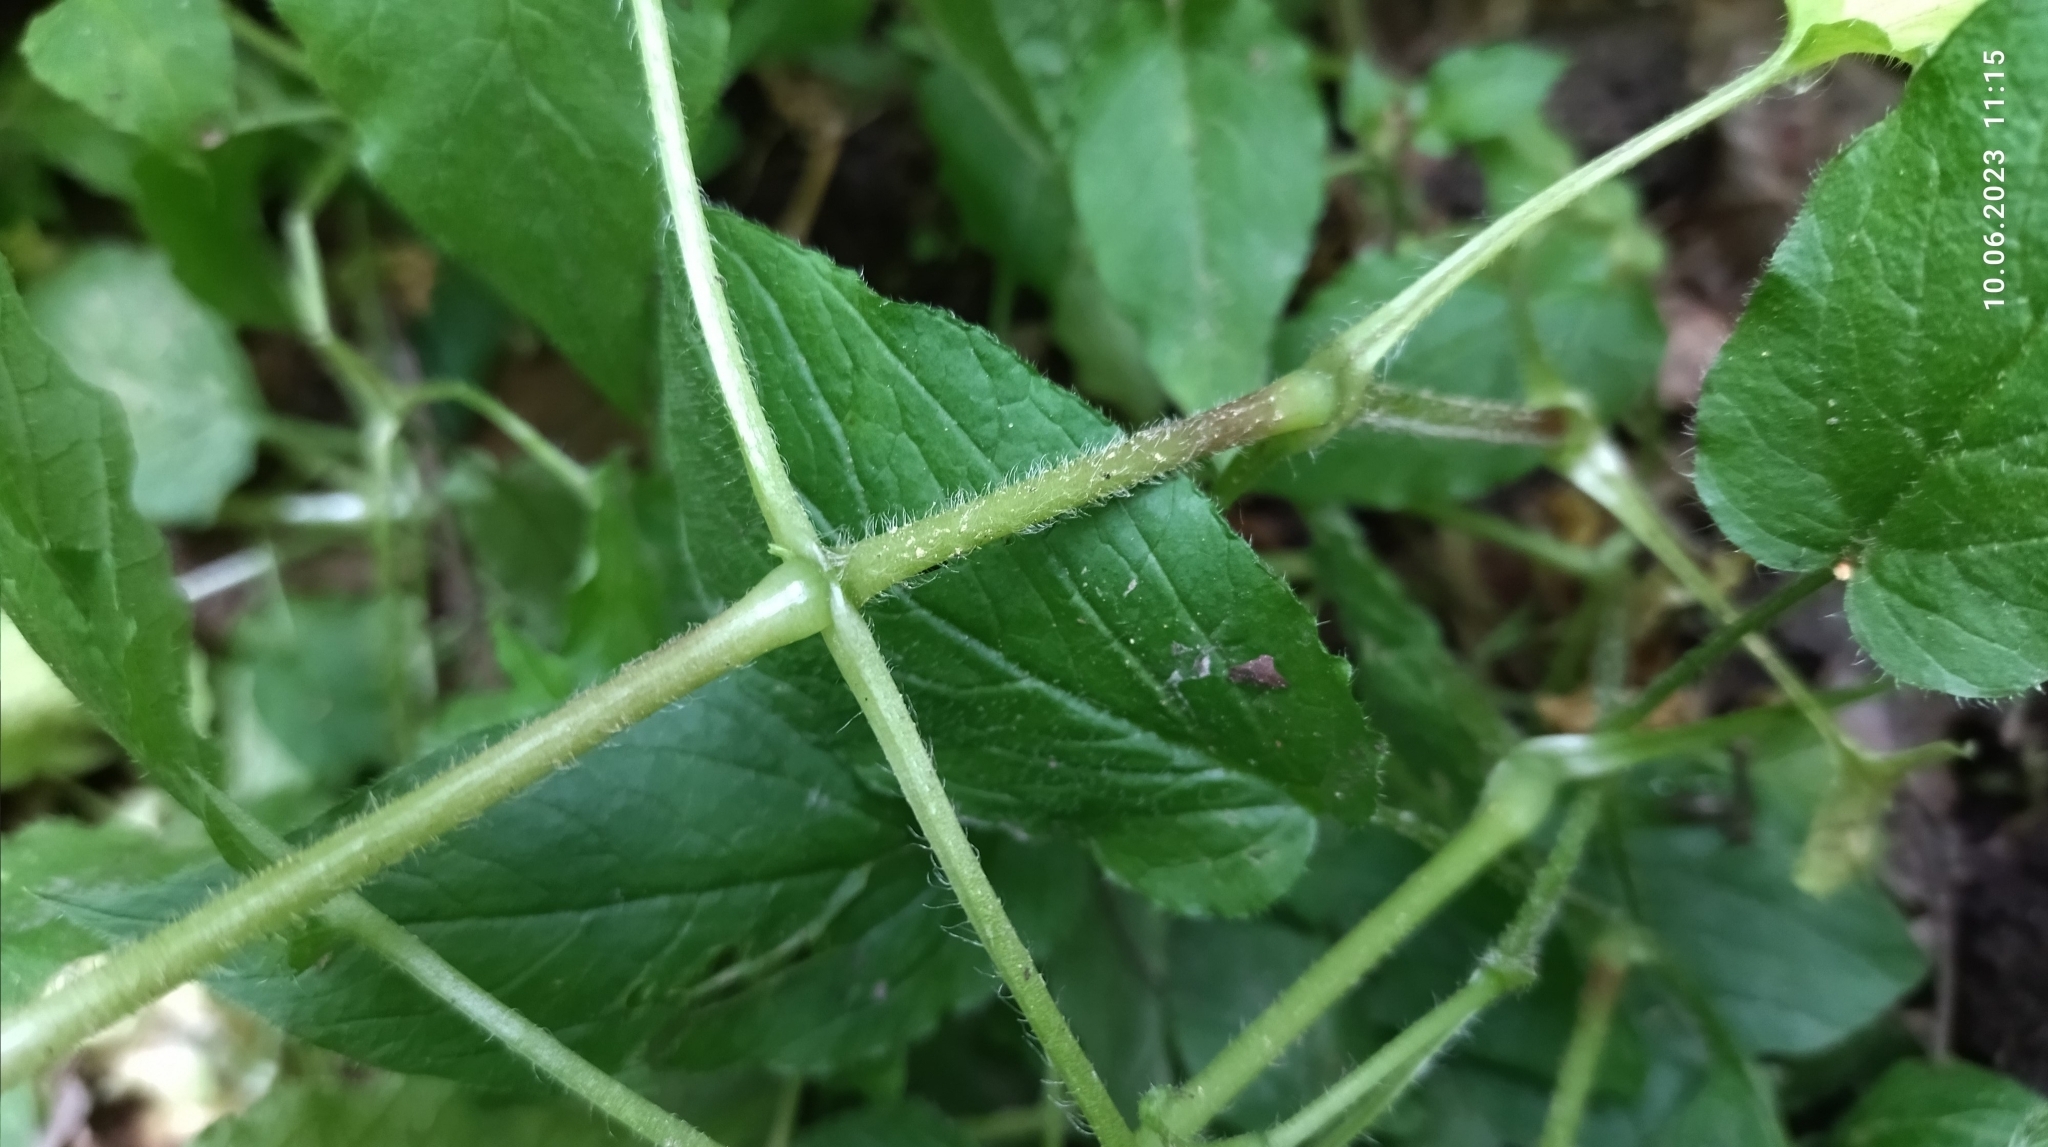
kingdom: Plantae
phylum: Tracheophyta
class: Magnoliopsida
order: Caryophyllales
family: Caryophyllaceae
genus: Stellaria
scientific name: Stellaria nemorum
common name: Wood stitchwort
